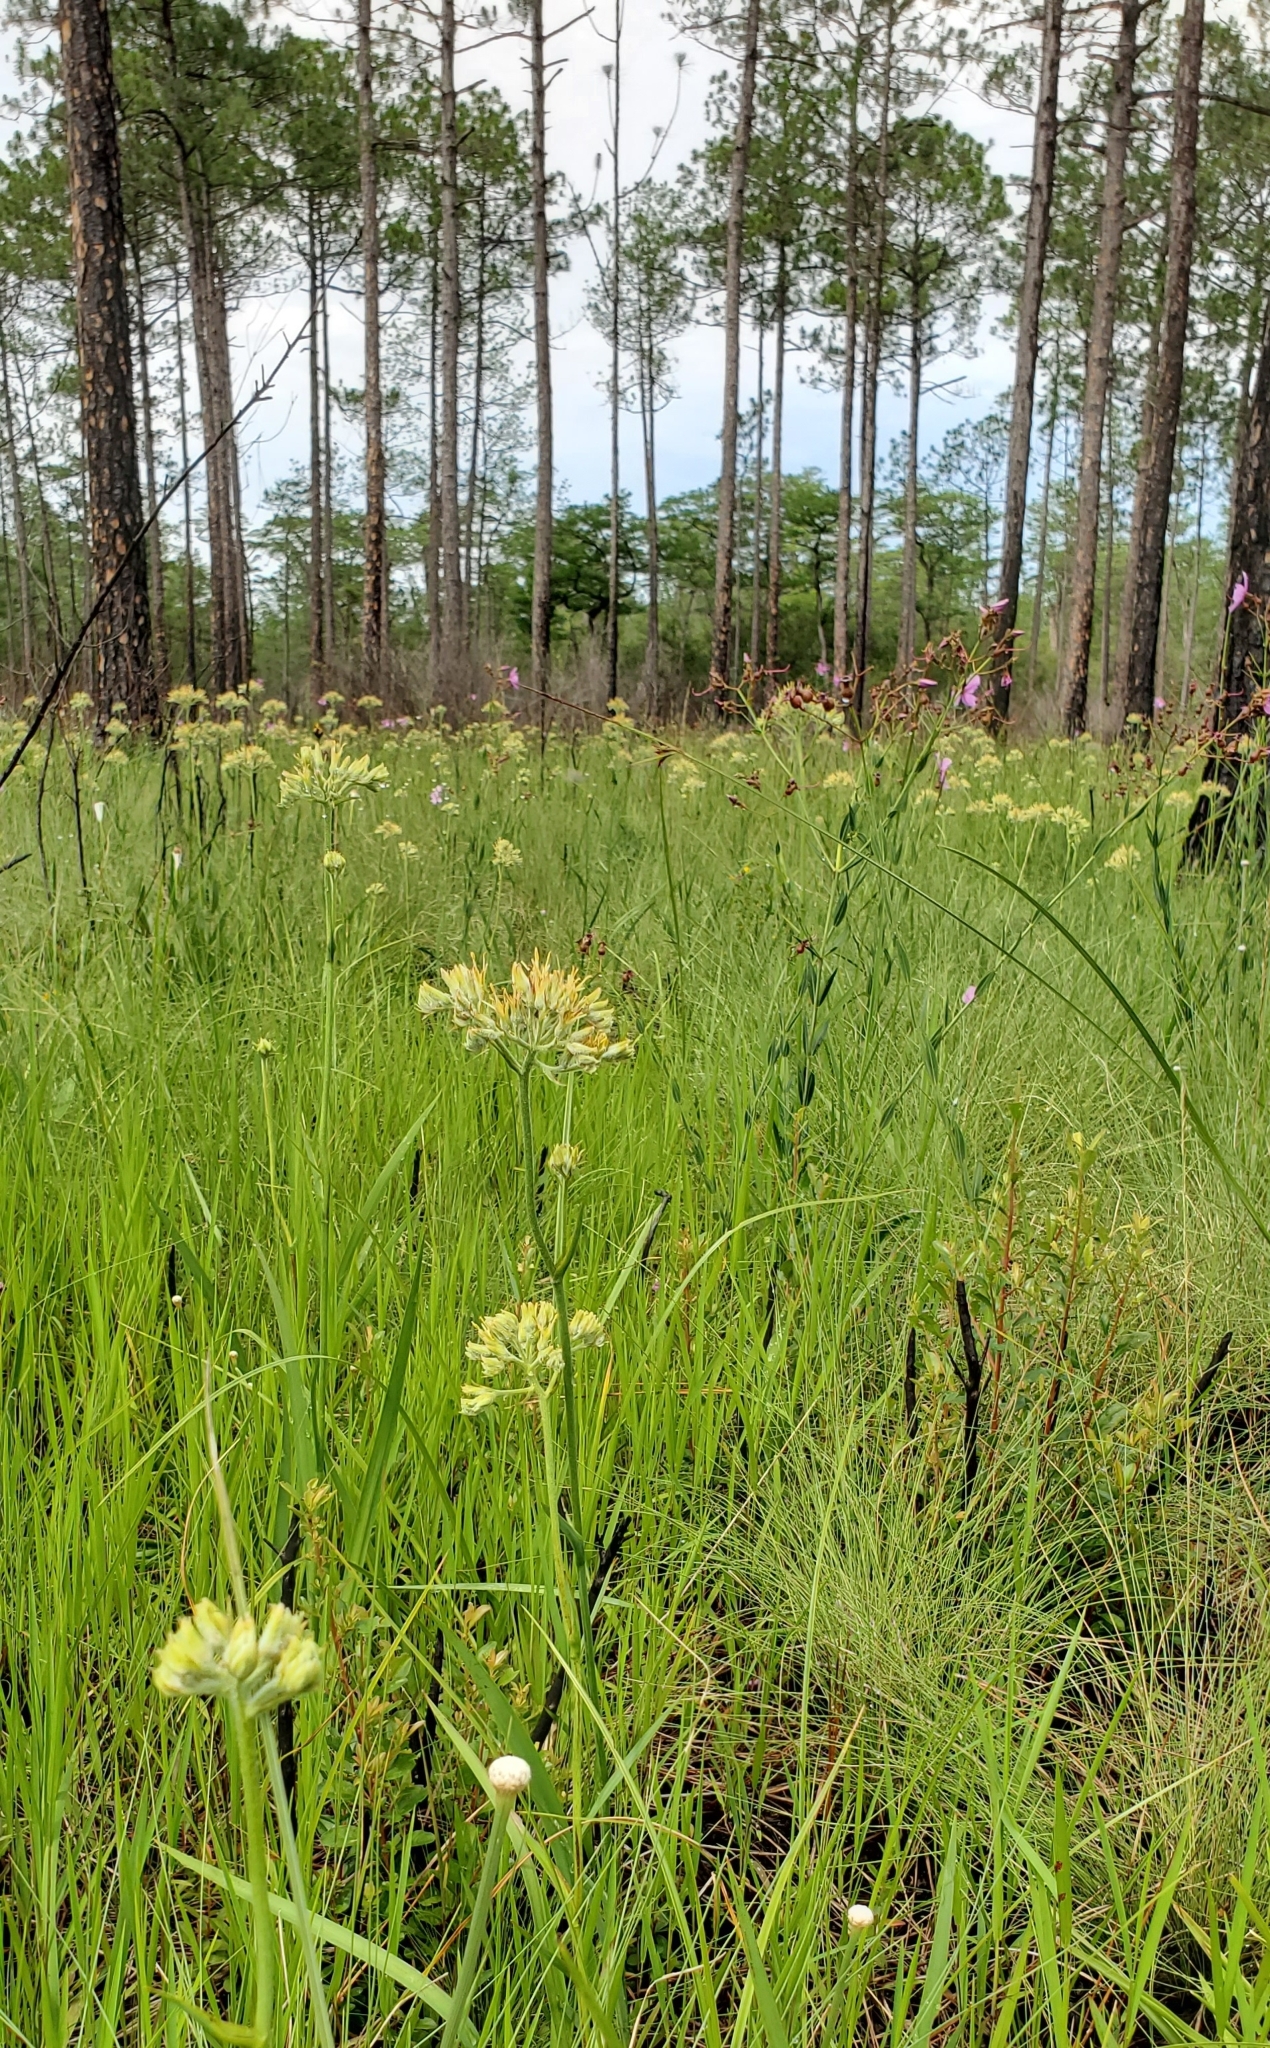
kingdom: Plantae
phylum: Tracheophyta
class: Liliopsida
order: Commelinales
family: Haemodoraceae
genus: Lachnanthes
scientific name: Lachnanthes caroliana
